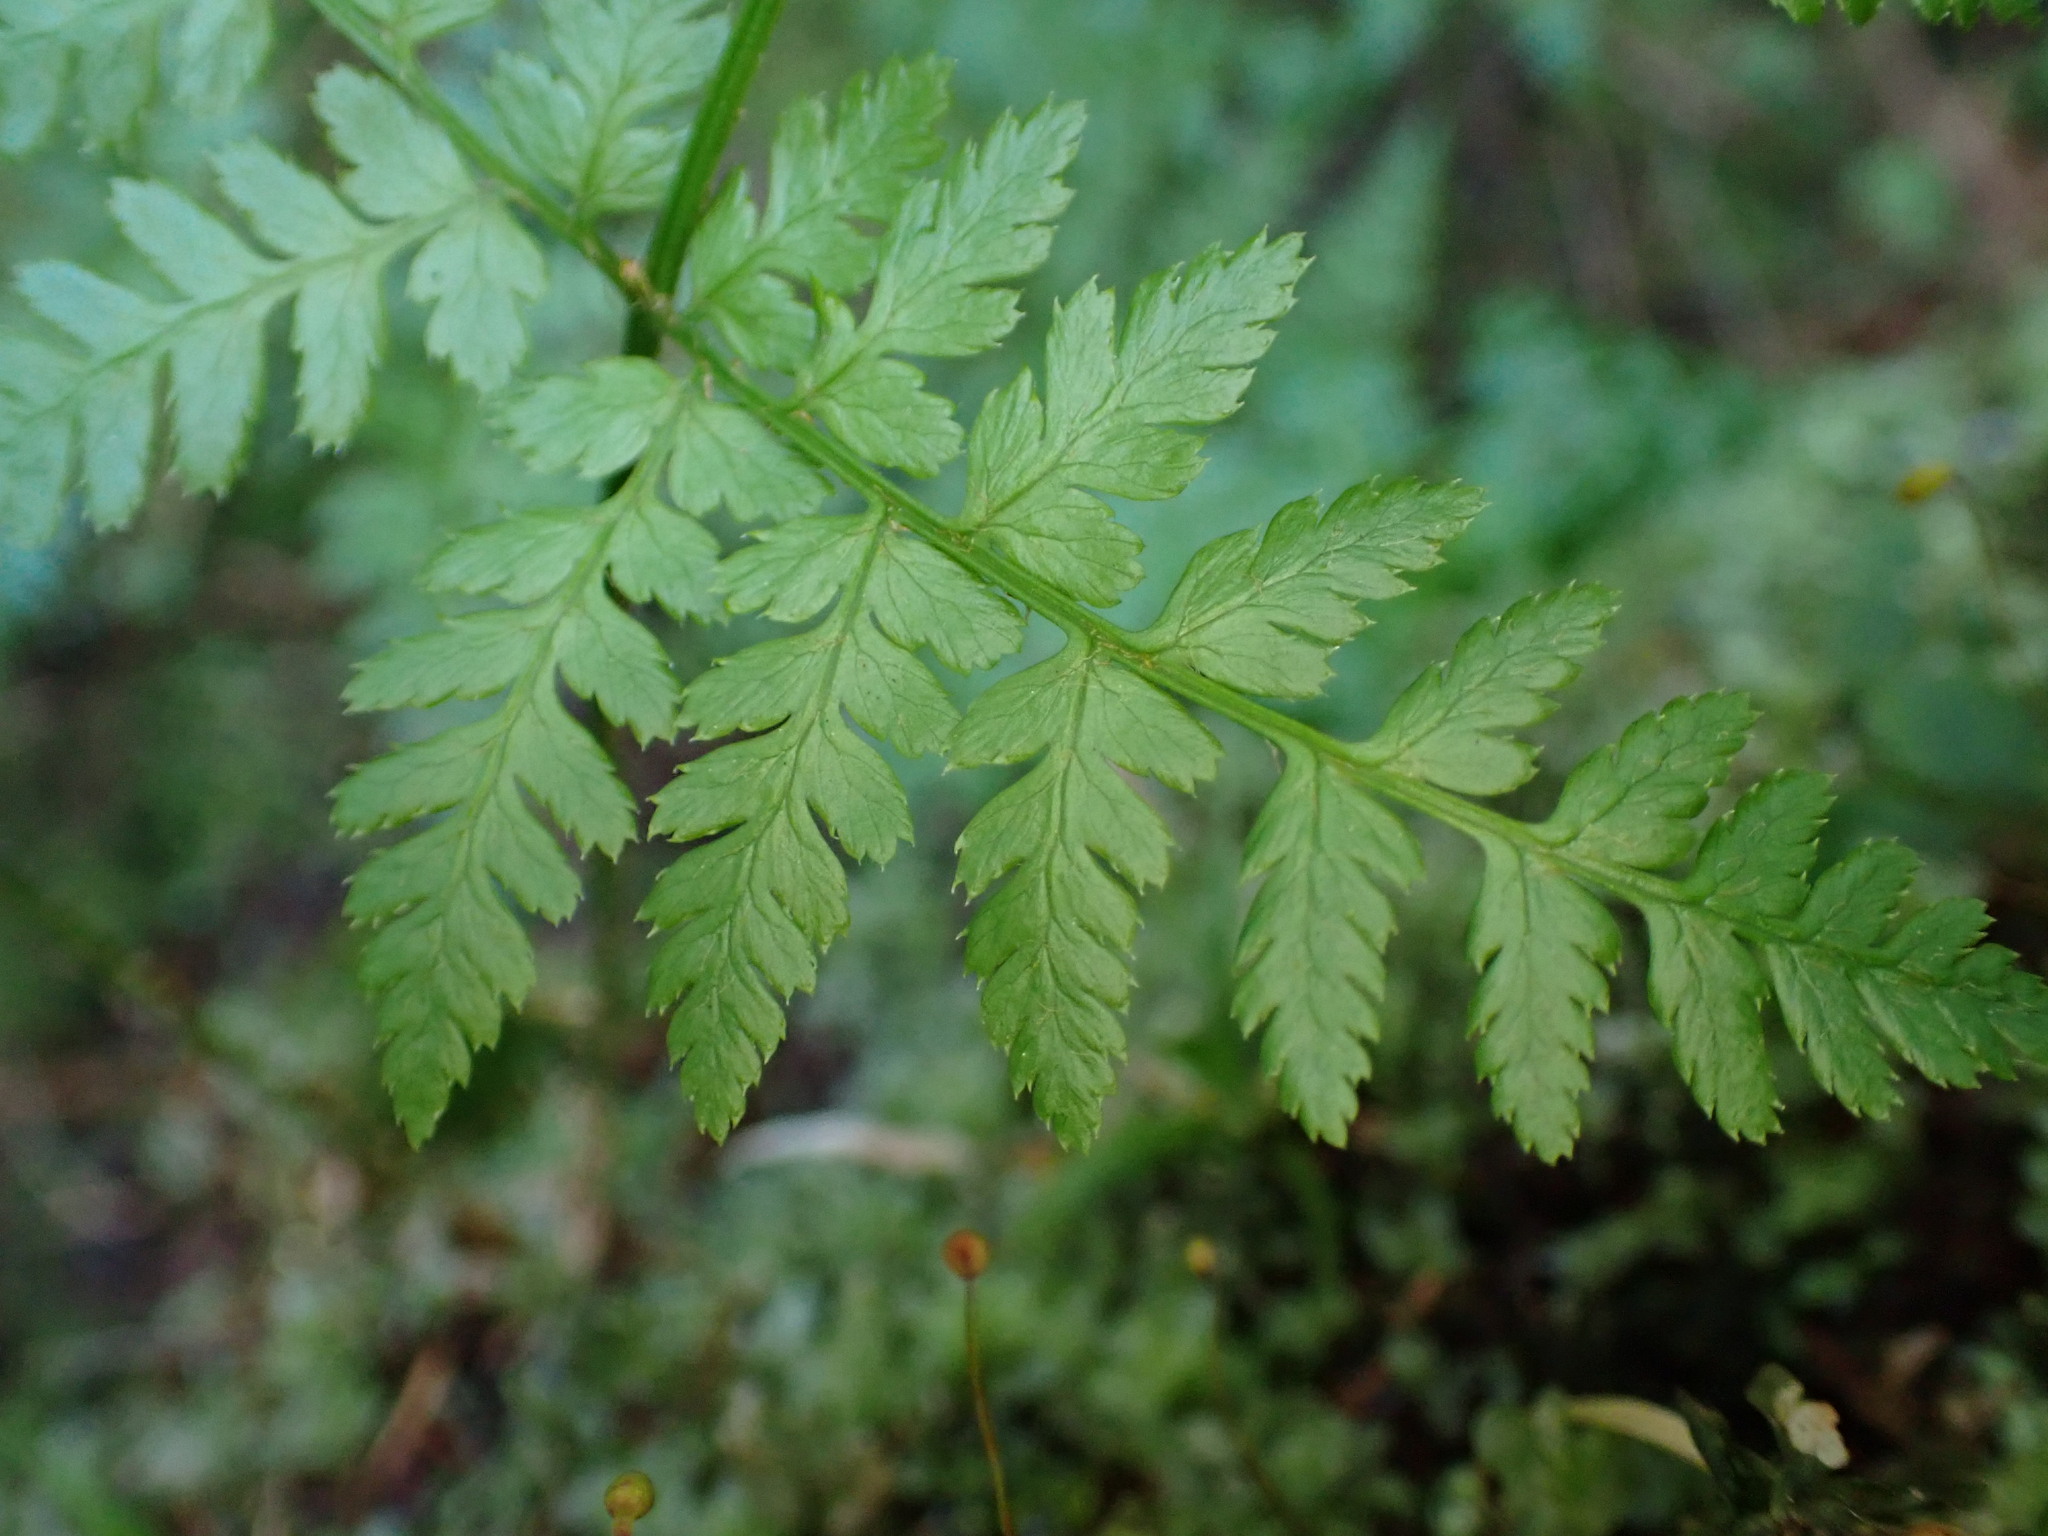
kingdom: Plantae
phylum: Tracheophyta
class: Polypodiopsida
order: Polypodiales
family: Dryopteridaceae
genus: Dryopteris
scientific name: Dryopteris expansa
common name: Northern buckler fern
